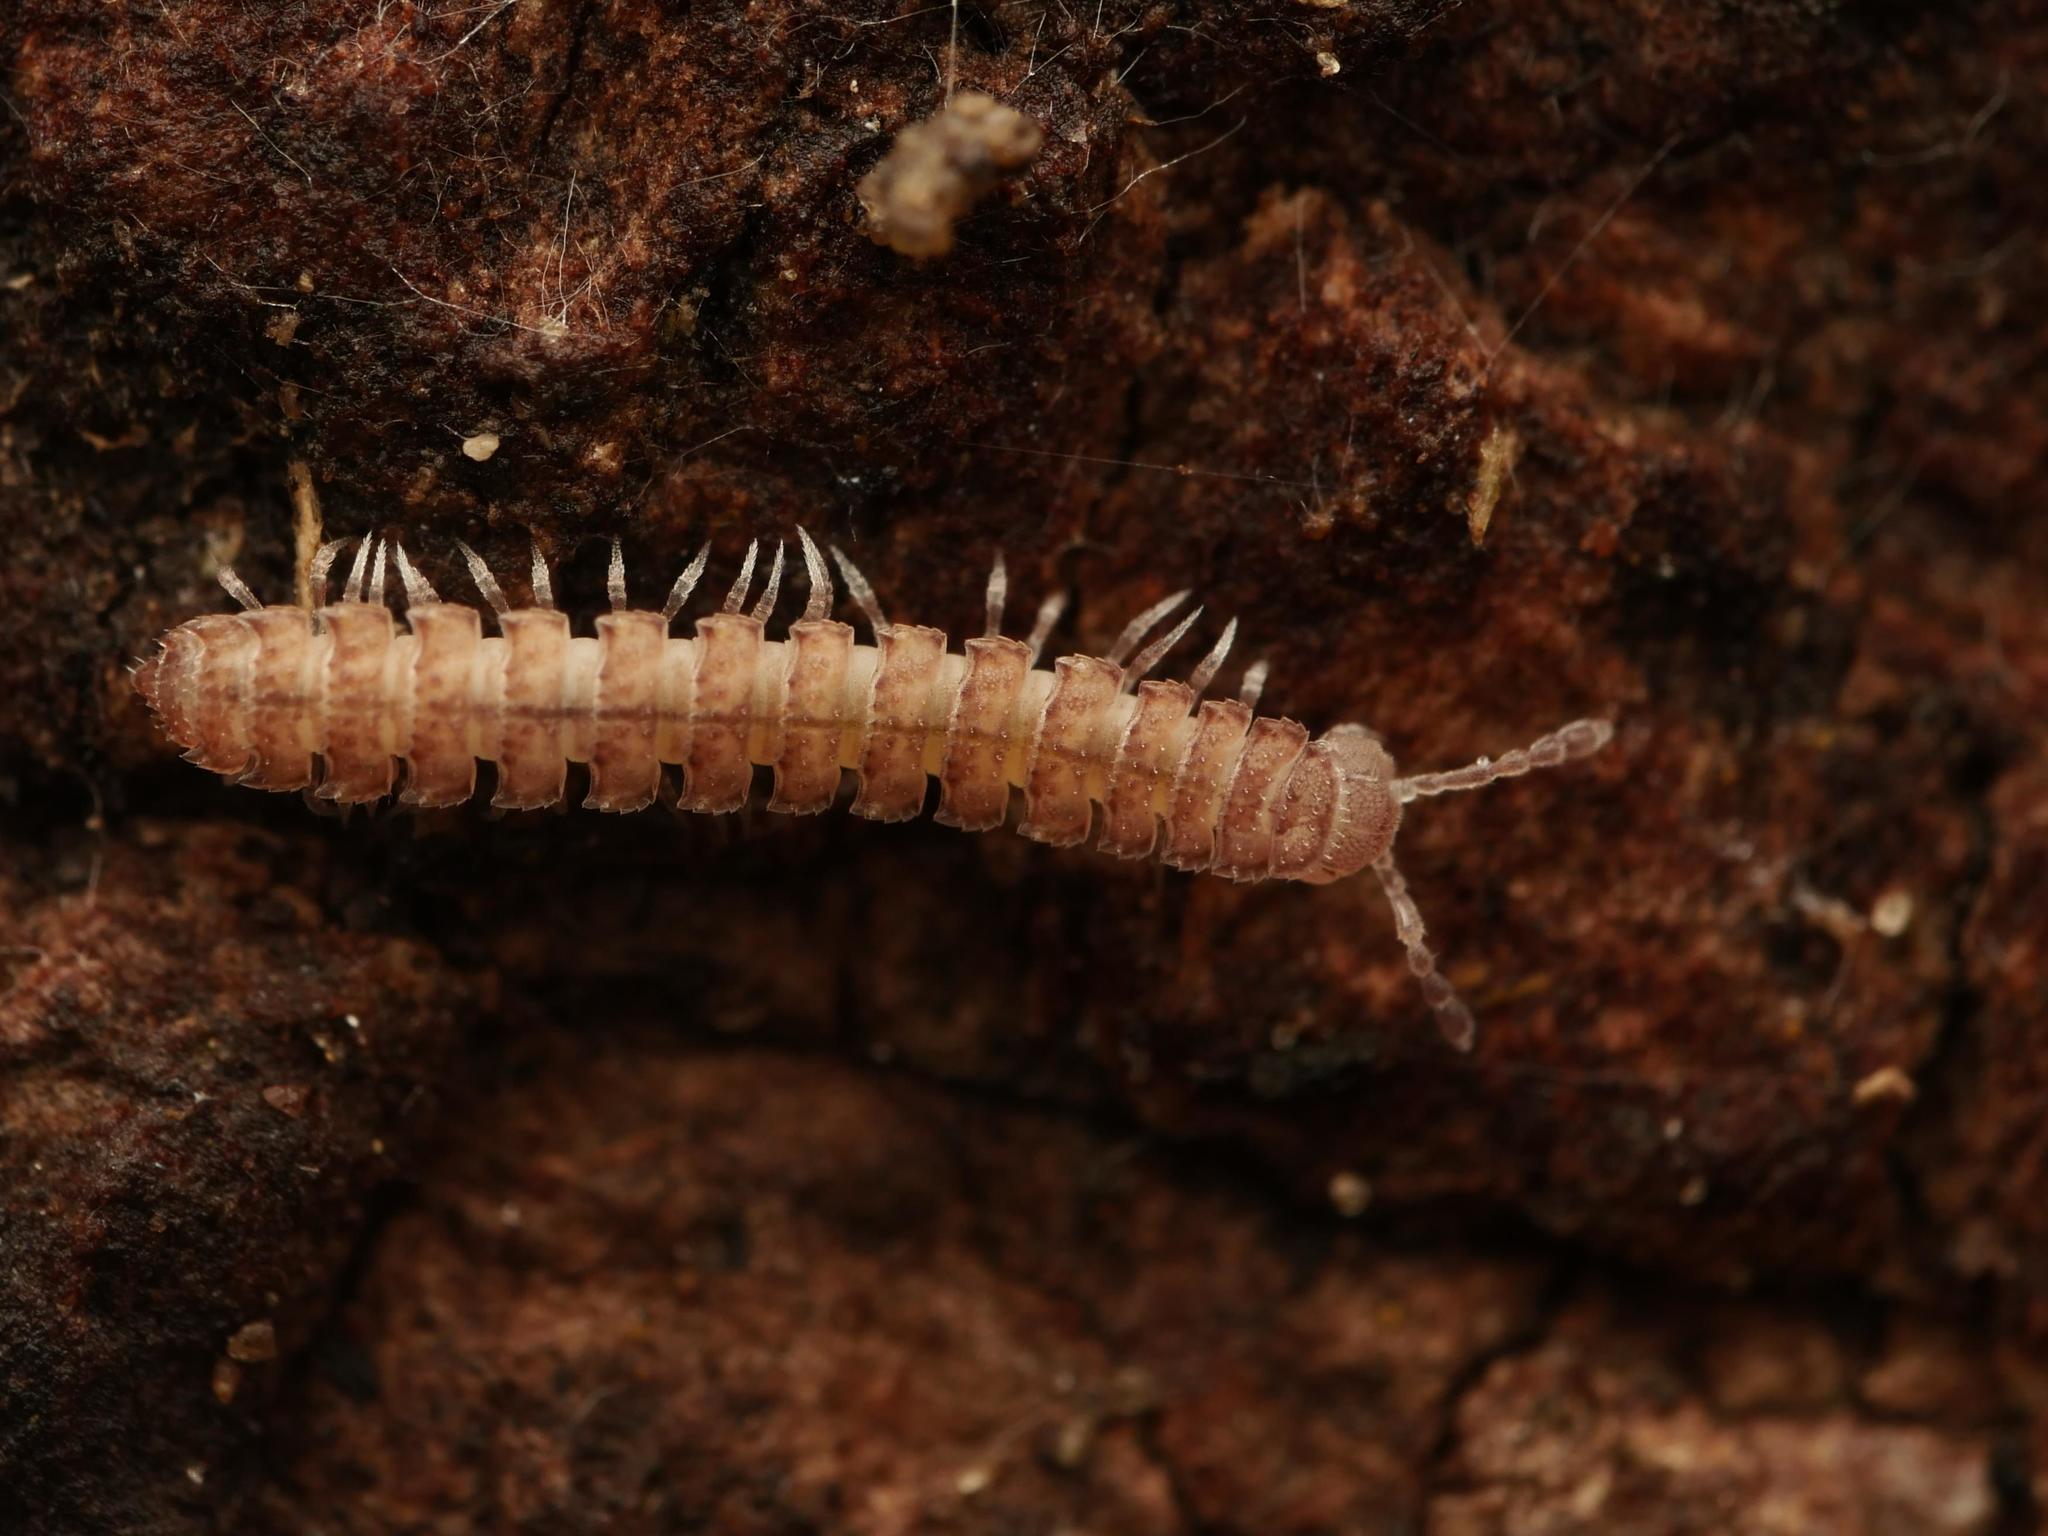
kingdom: Animalia
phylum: Arthropoda
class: Diplopoda
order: Polydesmida
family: Polydesmidae
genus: Polydesmus
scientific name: Polydesmus angustus
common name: Flat millipede
